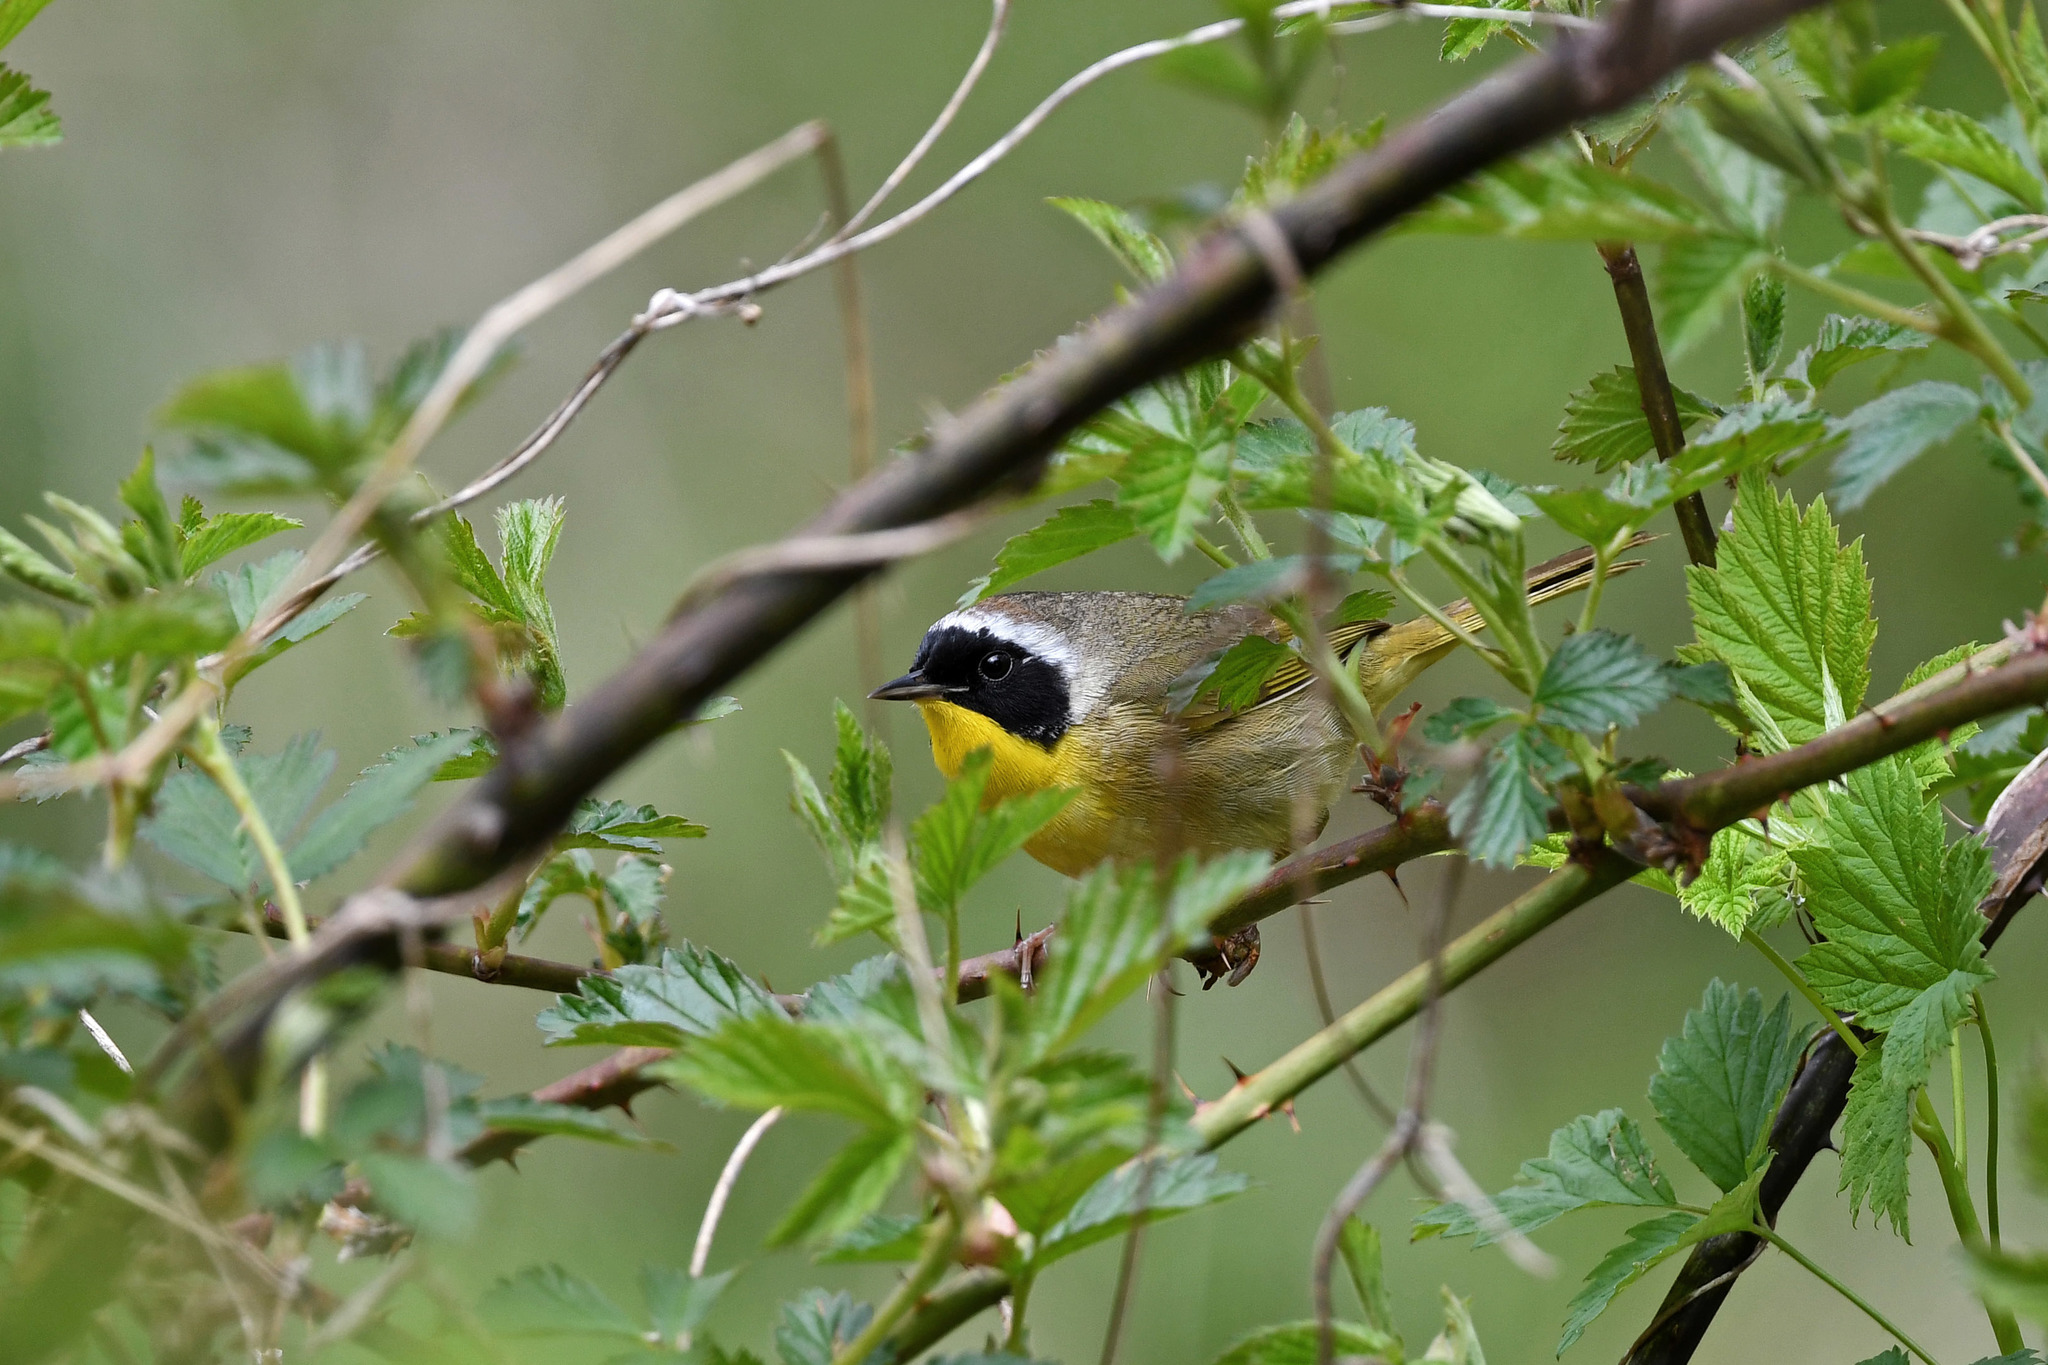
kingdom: Animalia
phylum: Chordata
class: Aves
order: Passeriformes
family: Parulidae
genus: Geothlypis
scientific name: Geothlypis trichas
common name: Common yellowthroat
